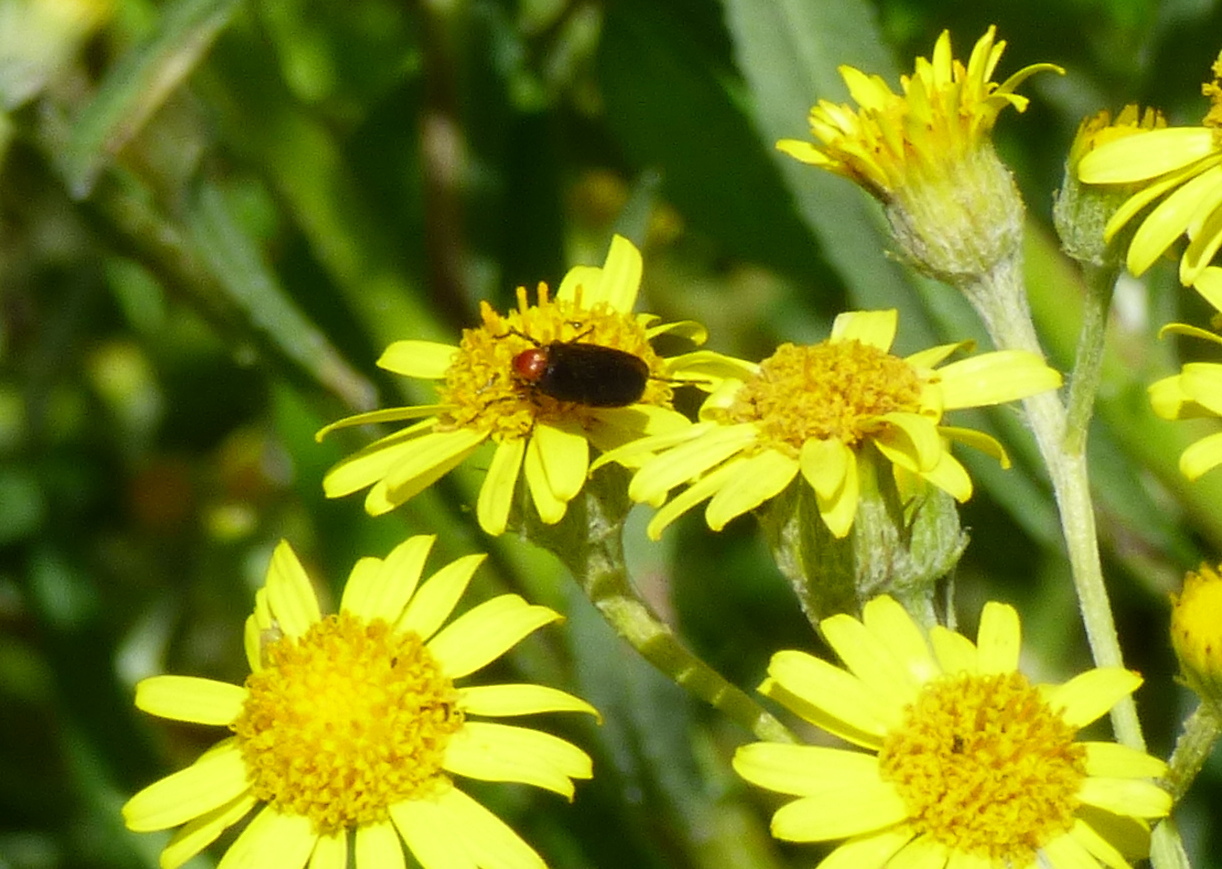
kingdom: Animalia
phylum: Arthropoda
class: Insecta
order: Diptera
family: Bibionidae
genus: Dilophus
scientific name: Dilophus pectoralis
